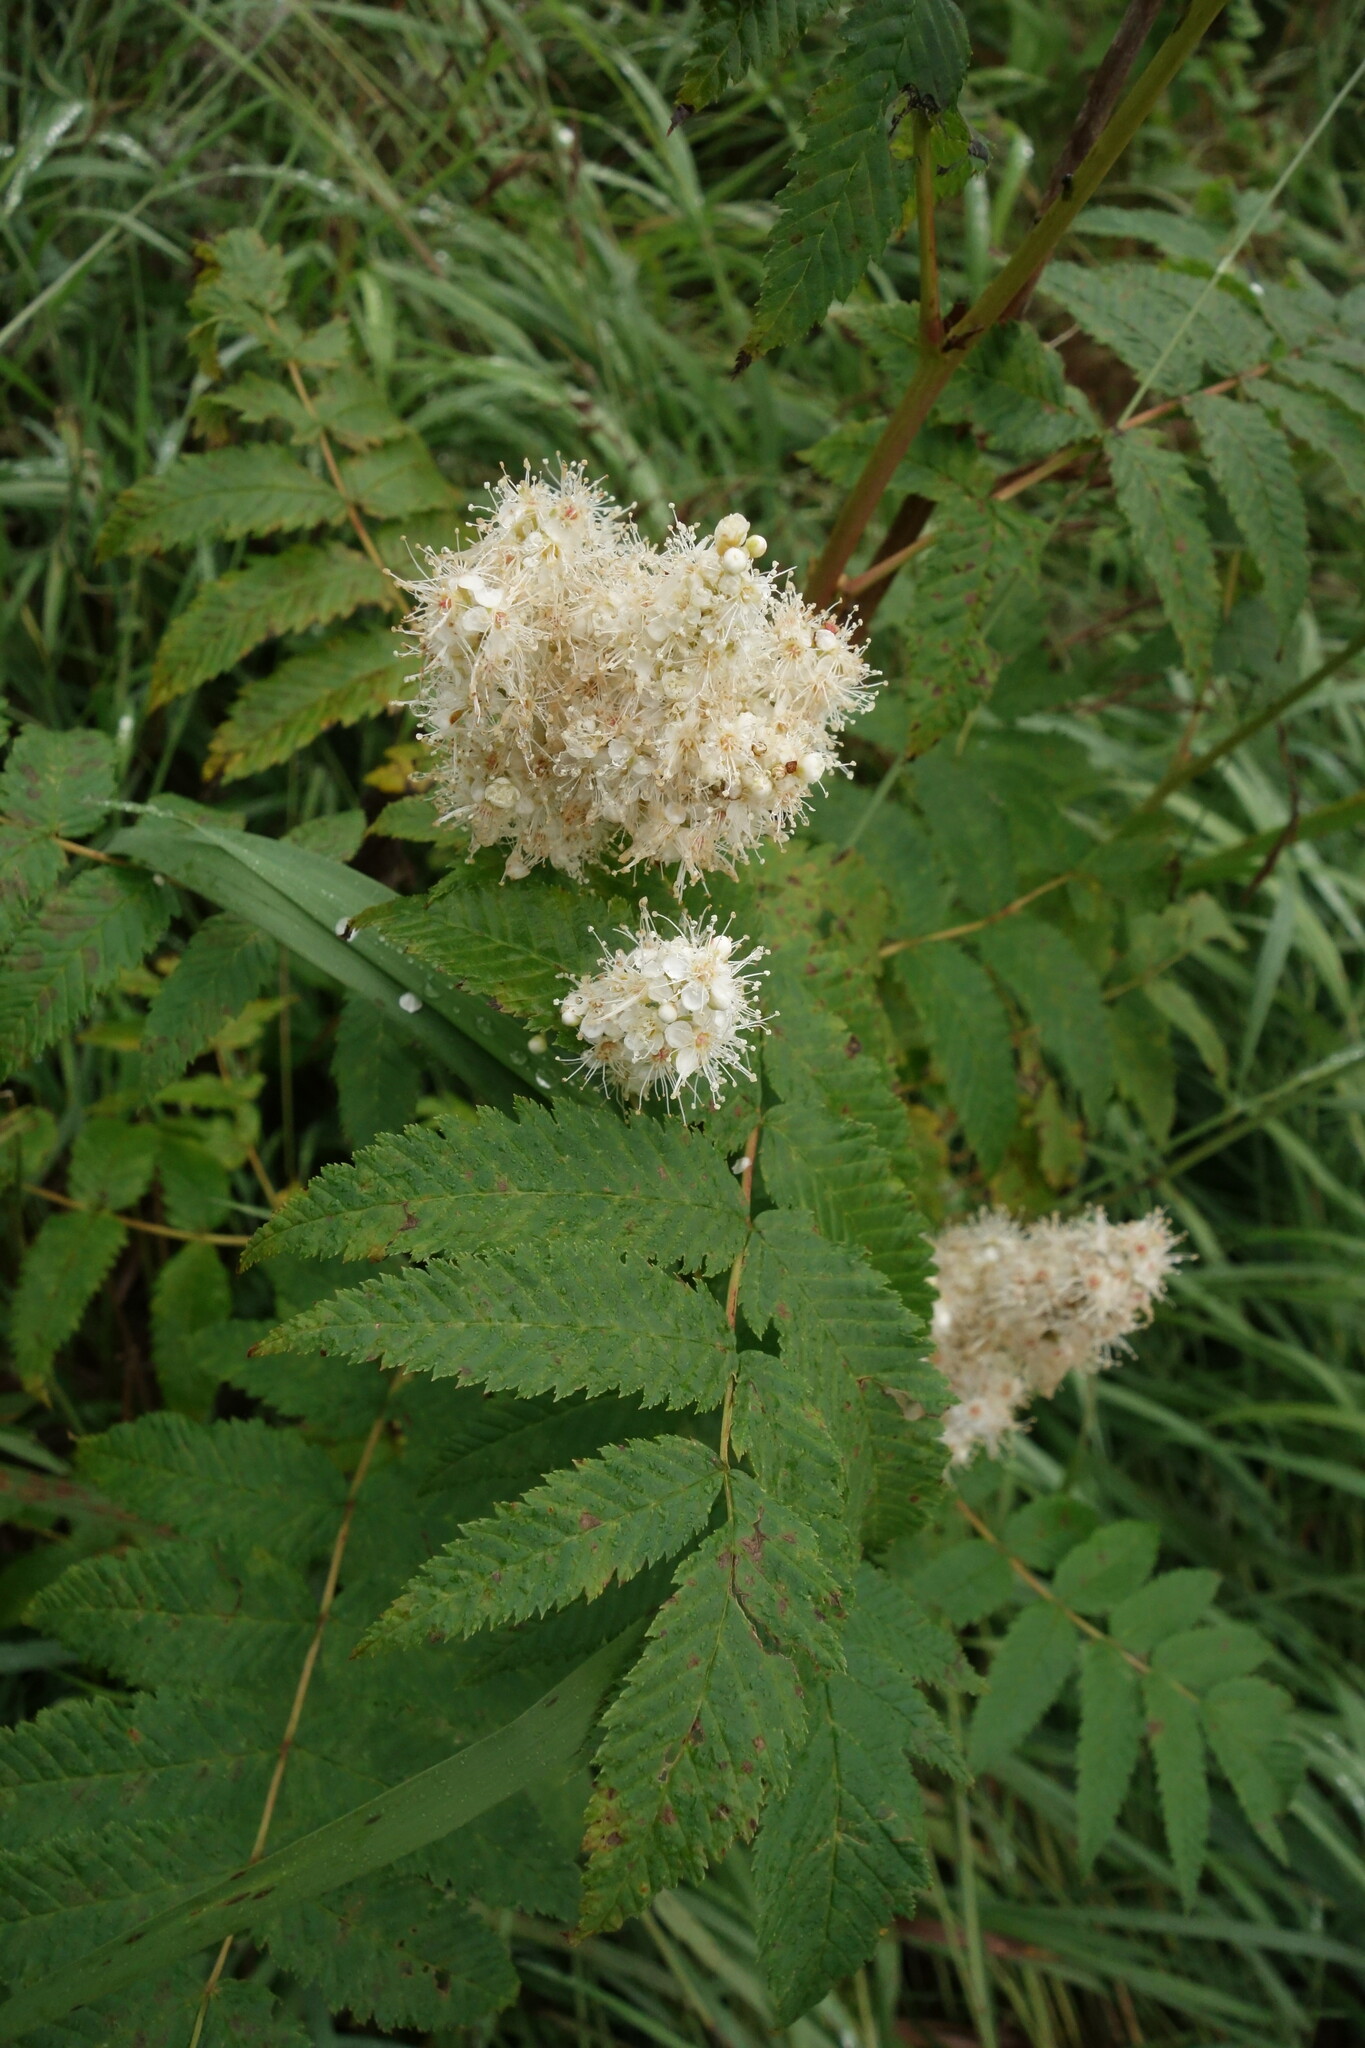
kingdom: Plantae
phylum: Tracheophyta
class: Magnoliopsida
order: Rosales
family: Rosaceae
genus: Sorbaria
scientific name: Sorbaria sorbifolia
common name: False spiraea
